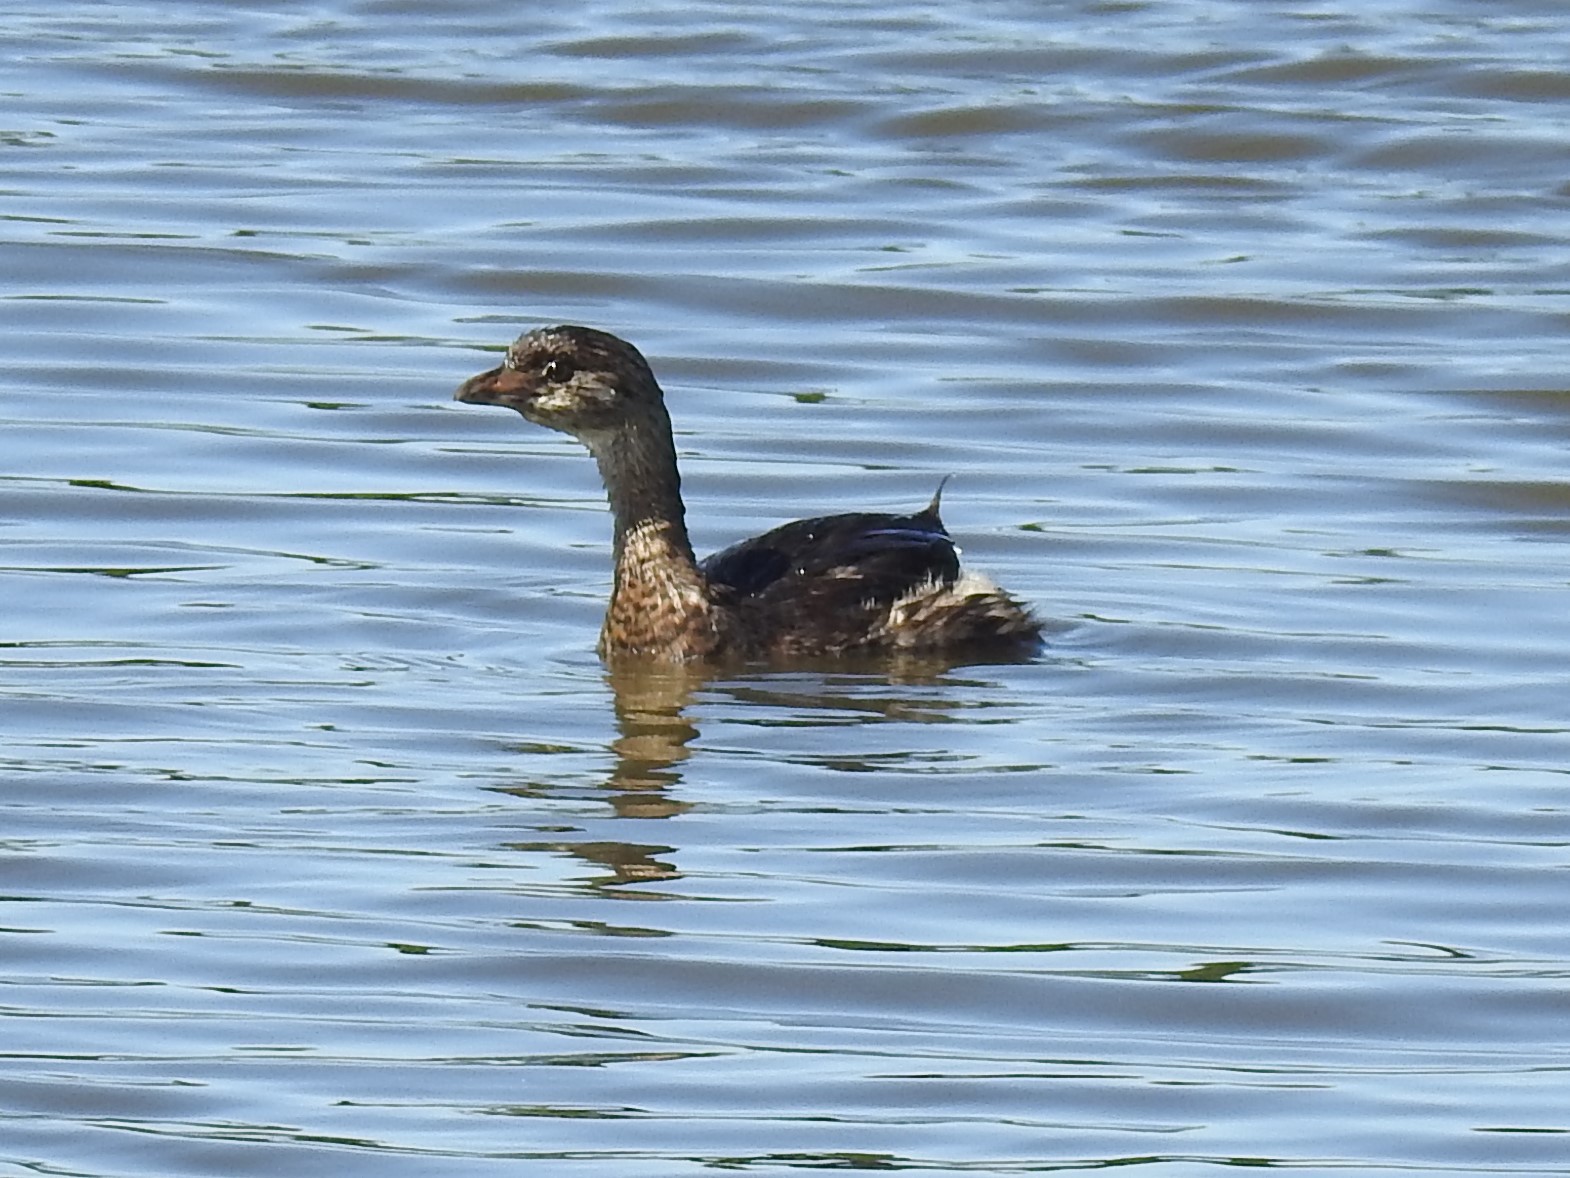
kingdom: Animalia
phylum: Chordata
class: Aves
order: Podicipediformes
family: Podicipedidae
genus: Podilymbus
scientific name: Podilymbus podiceps
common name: Pied-billed grebe
